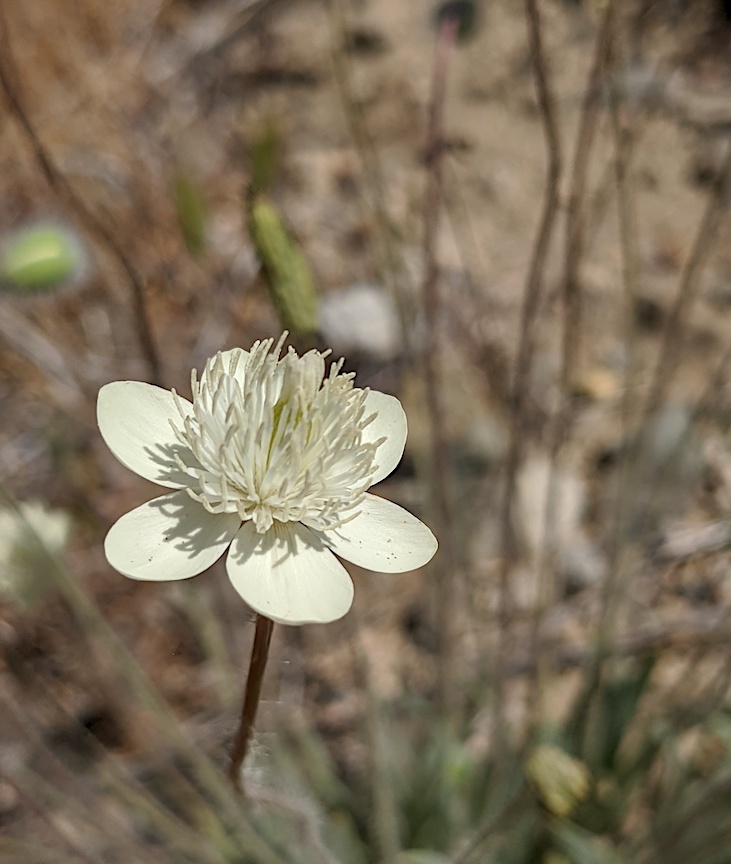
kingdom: Plantae
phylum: Tracheophyta
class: Magnoliopsida
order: Ranunculales
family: Papaveraceae
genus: Platystemon
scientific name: Platystemon californicus
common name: Cream-cups
